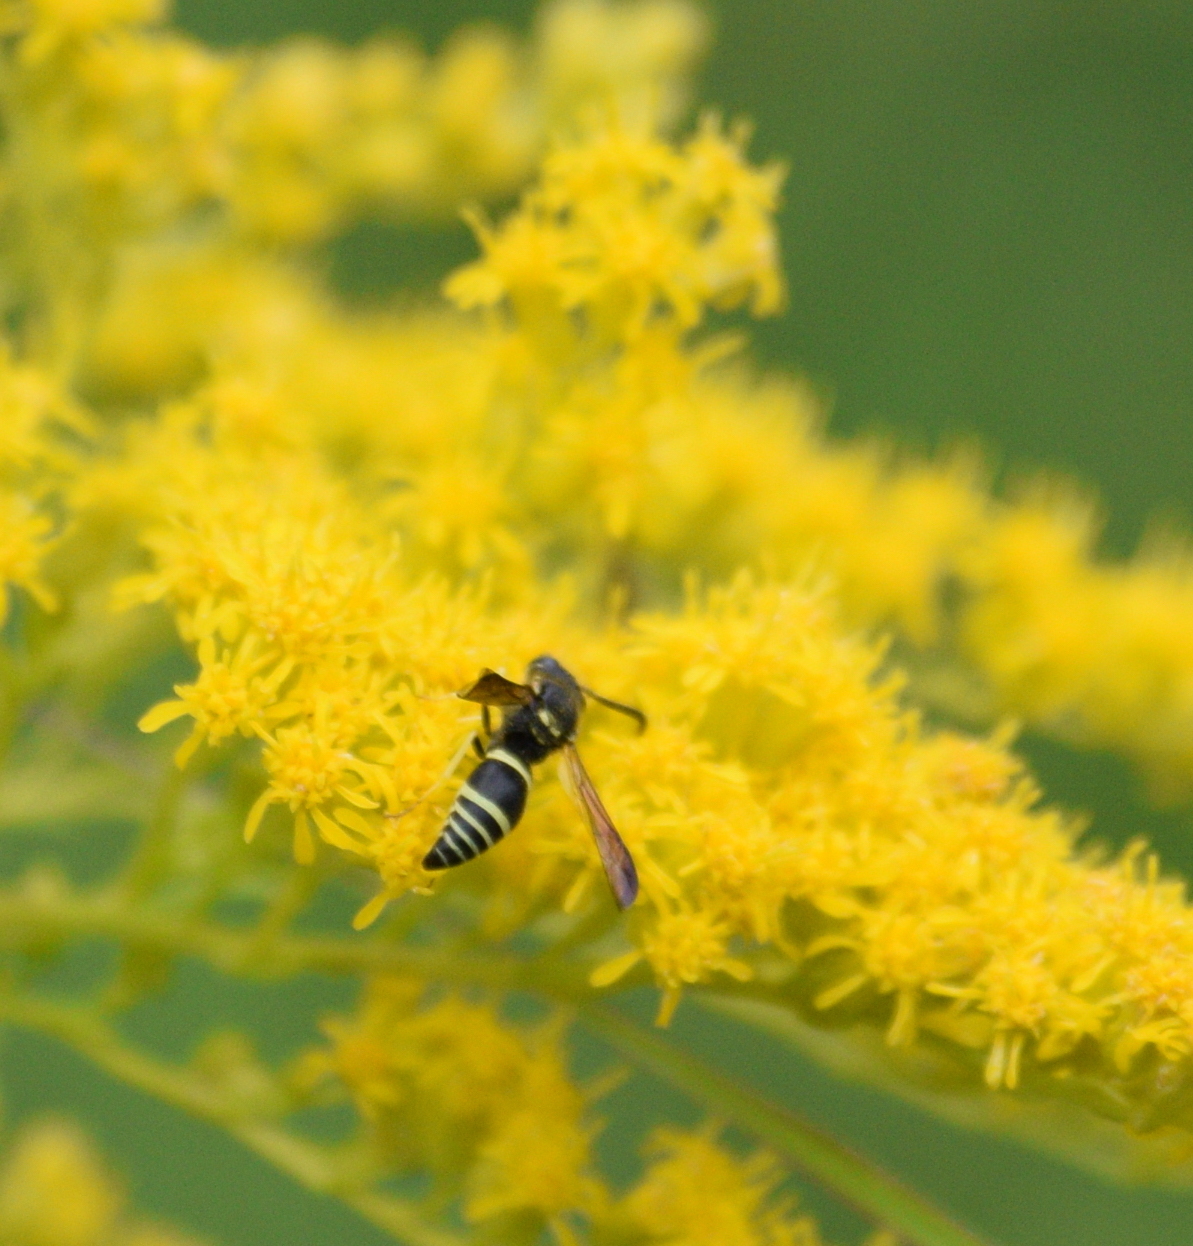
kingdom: Animalia
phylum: Arthropoda
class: Insecta
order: Hymenoptera
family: Vespidae
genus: Ancistrocerus
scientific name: Ancistrocerus
